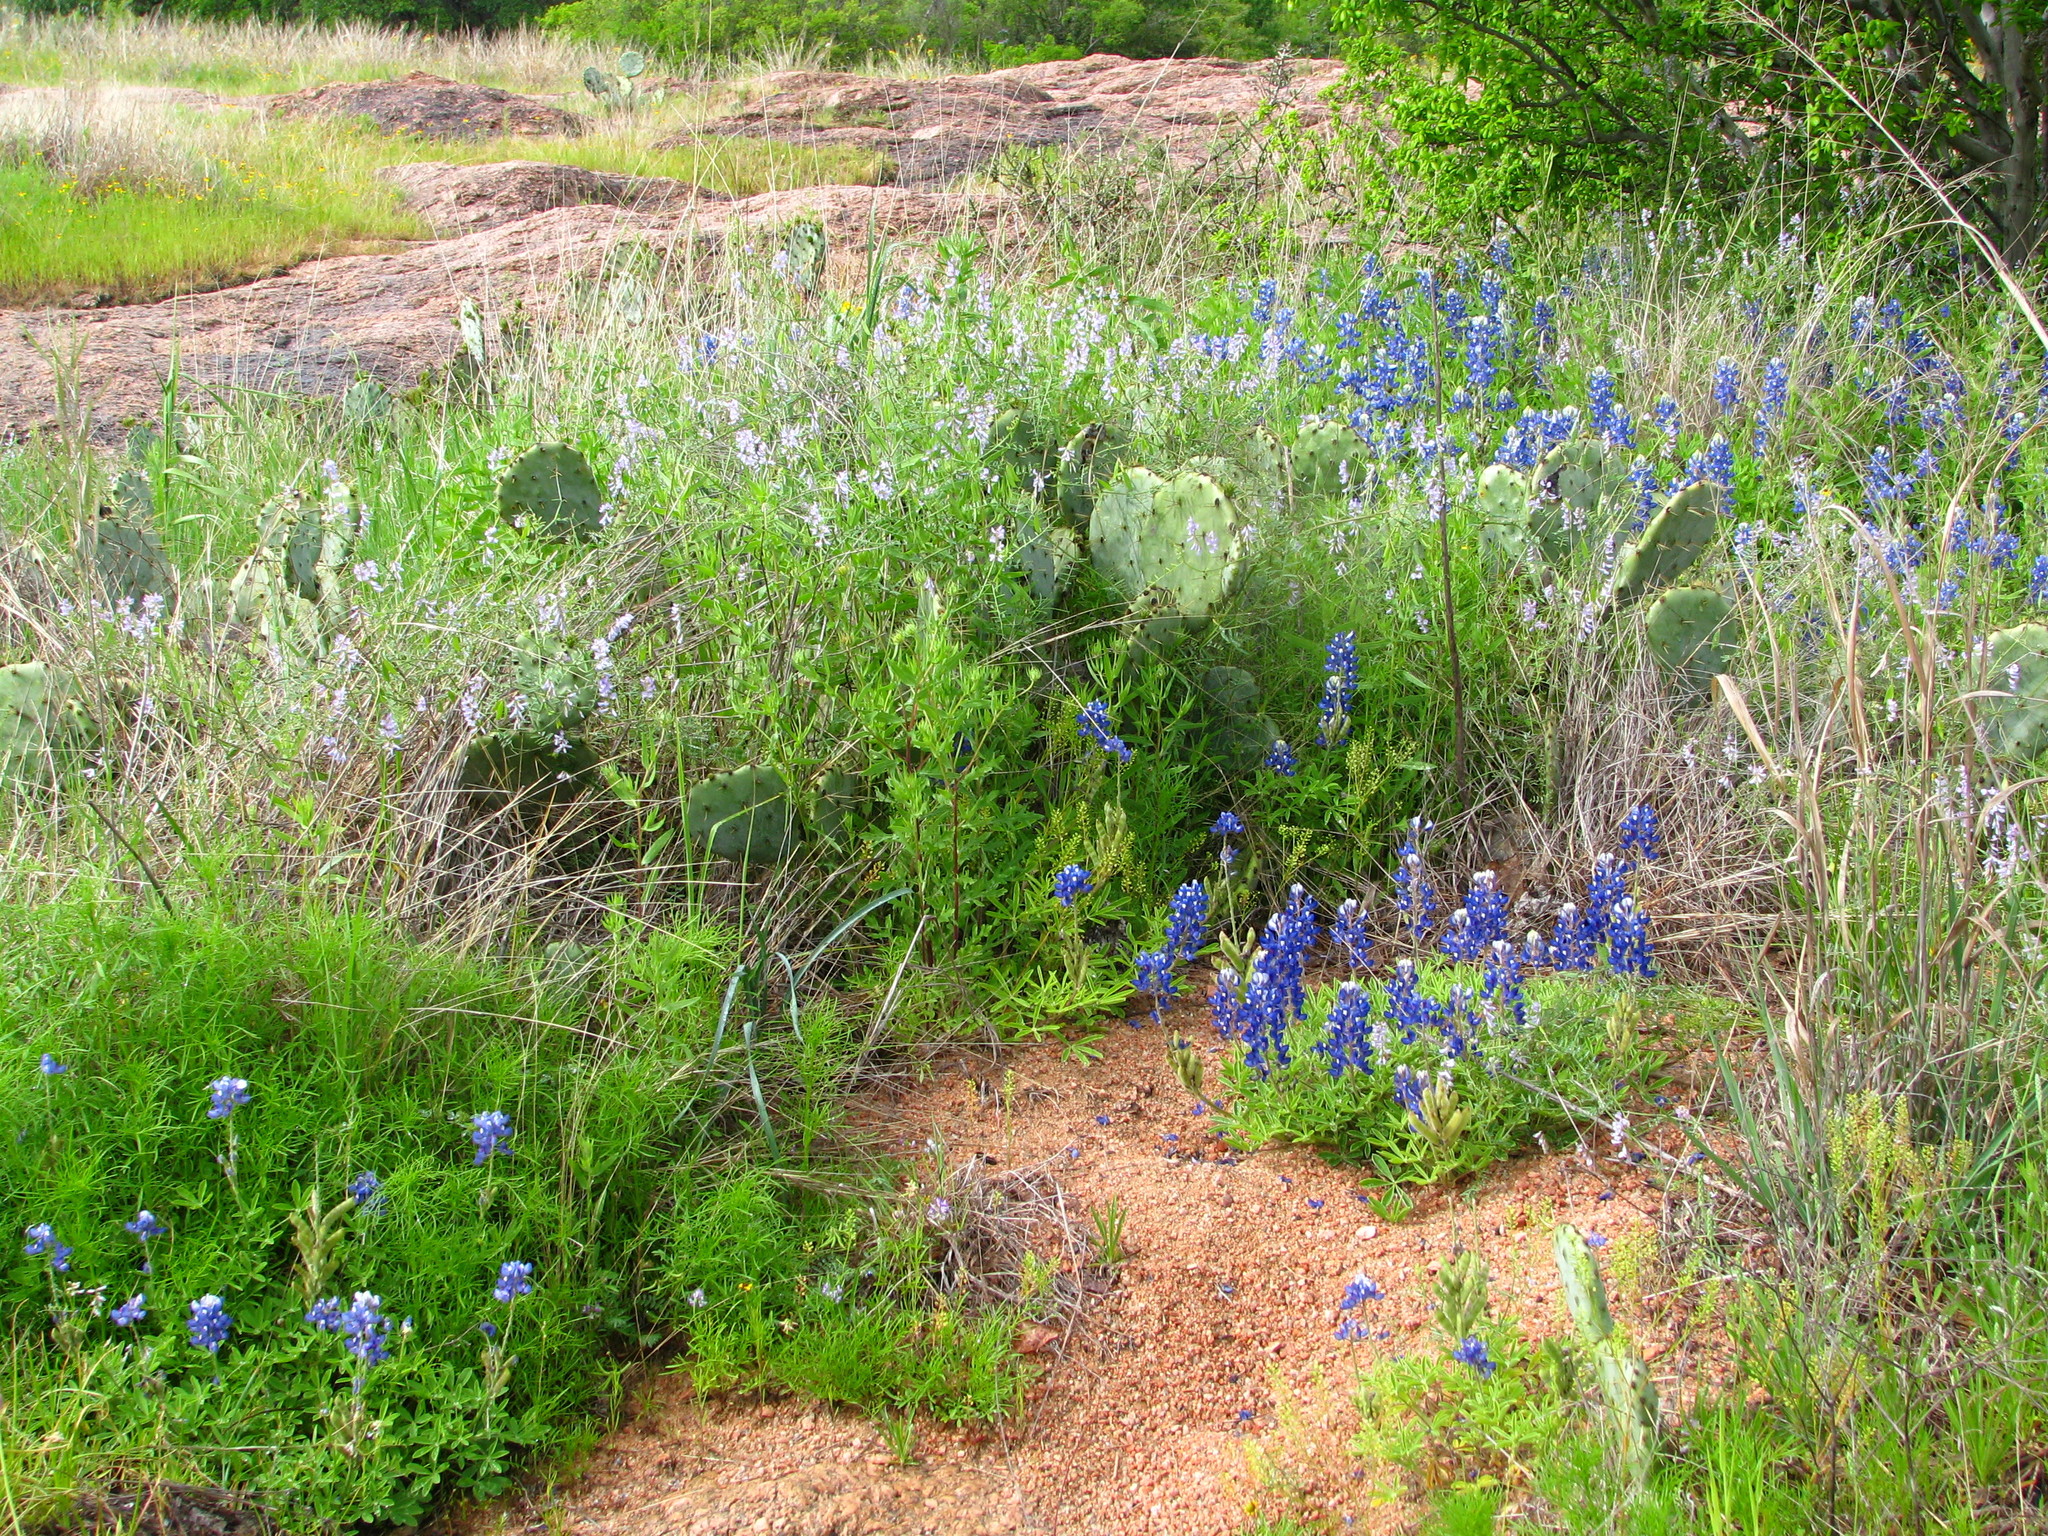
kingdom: Plantae
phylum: Tracheophyta
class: Magnoliopsida
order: Fabales
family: Fabaceae
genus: Lupinus
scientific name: Lupinus texensis
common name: Texas bluebonnet
